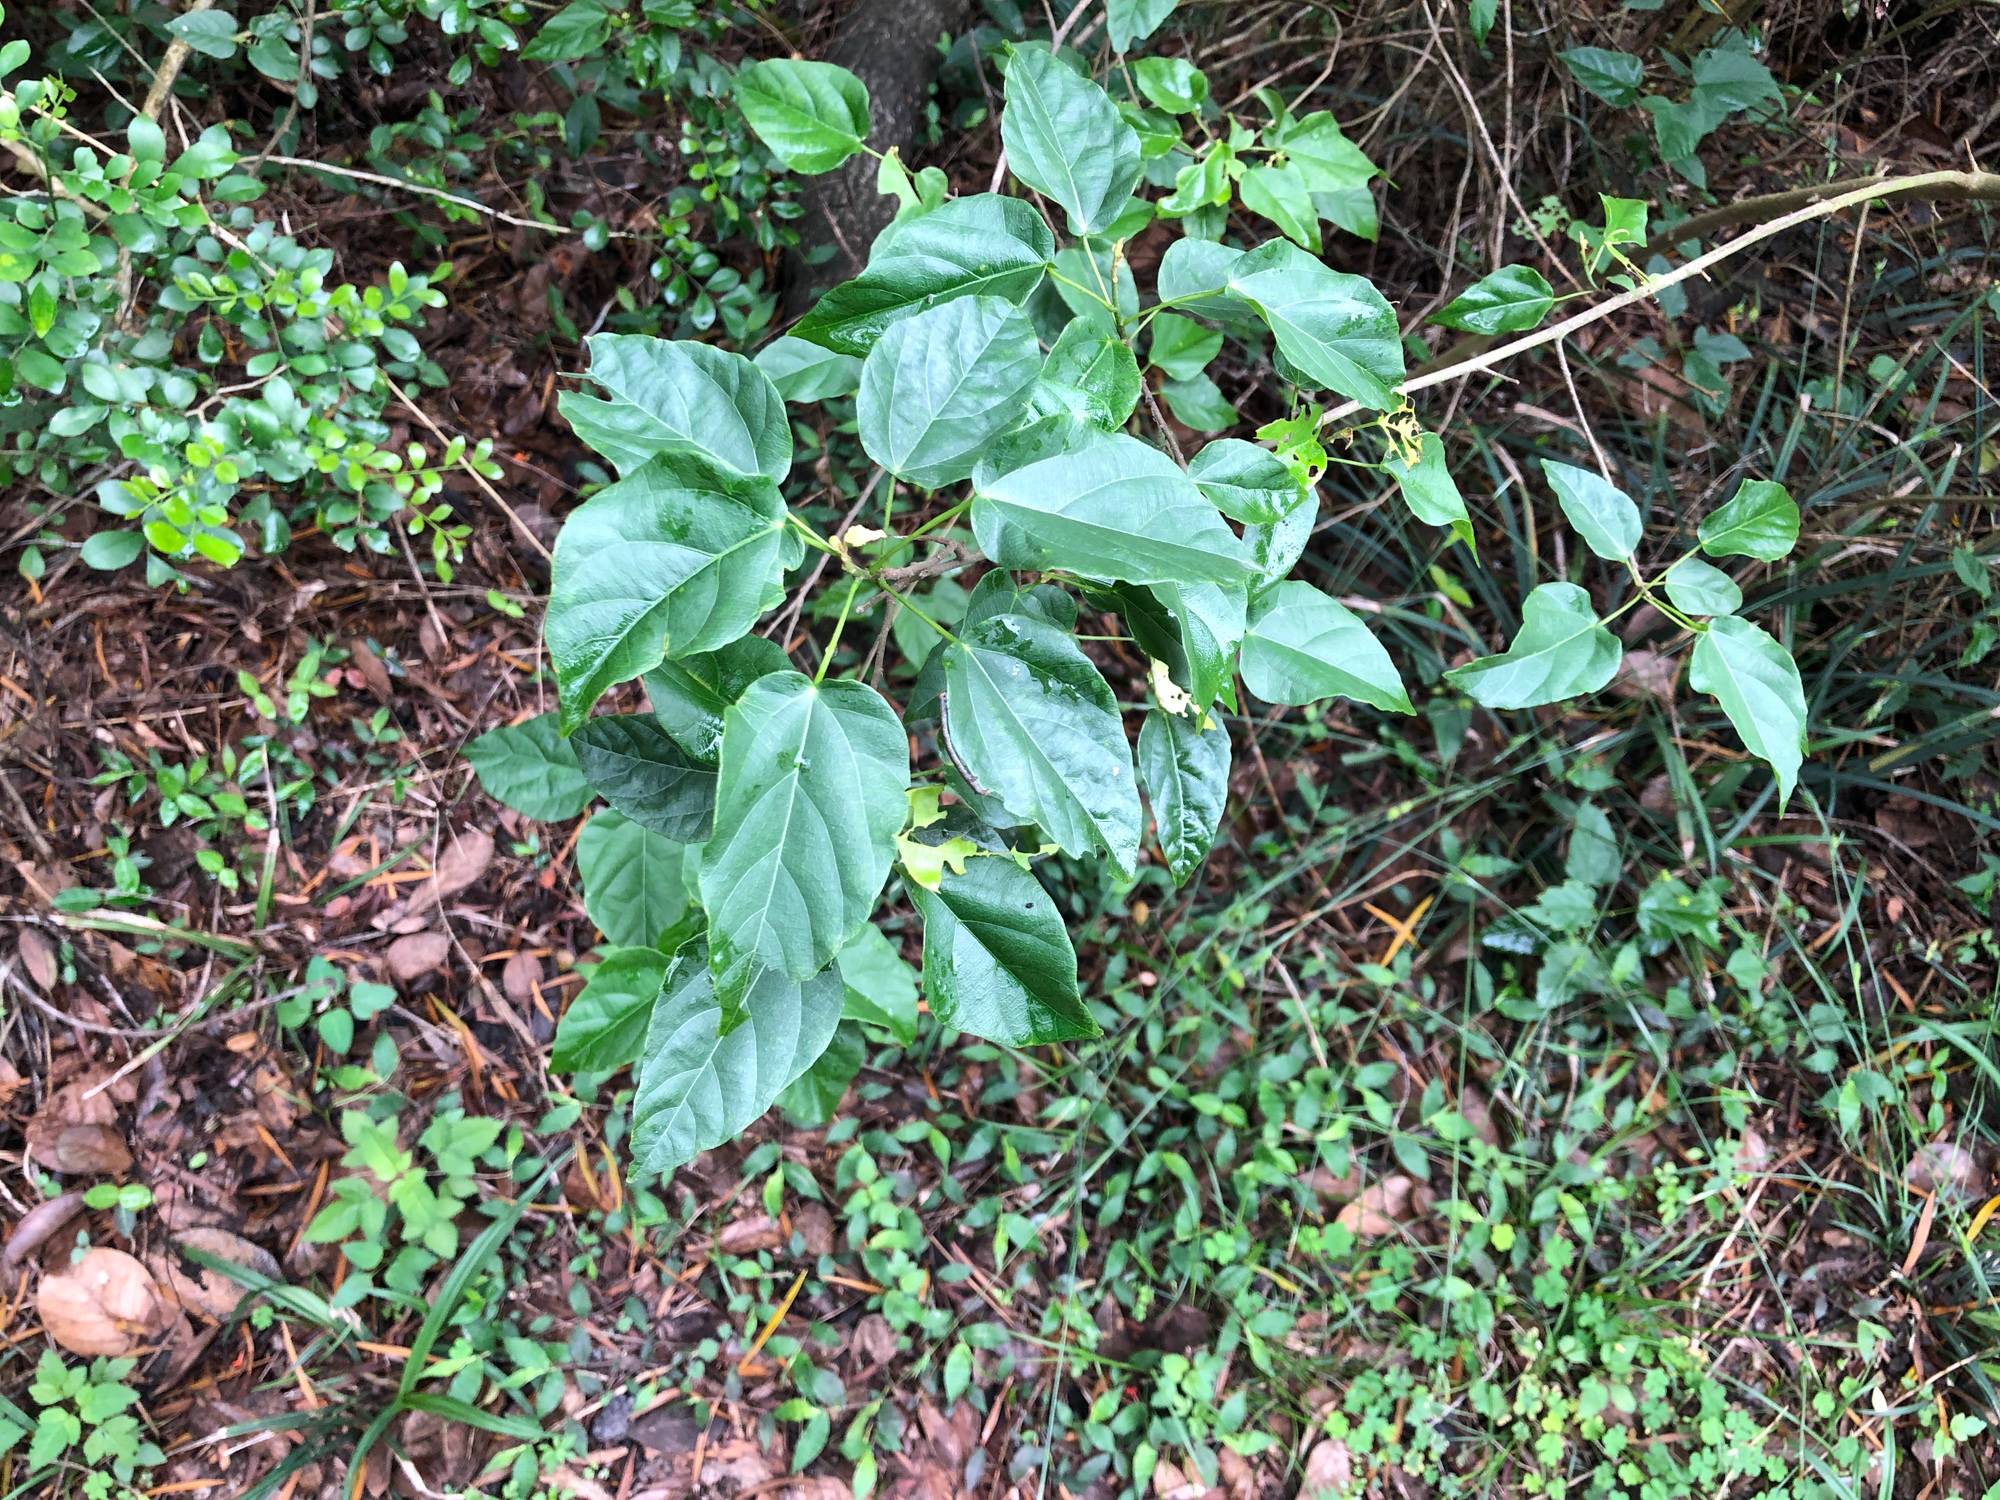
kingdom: Plantae
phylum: Tracheophyta
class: Magnoliopsida
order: Malpighiales
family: Euphorbiaceae
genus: Mallotus
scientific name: Mallotus repandus
